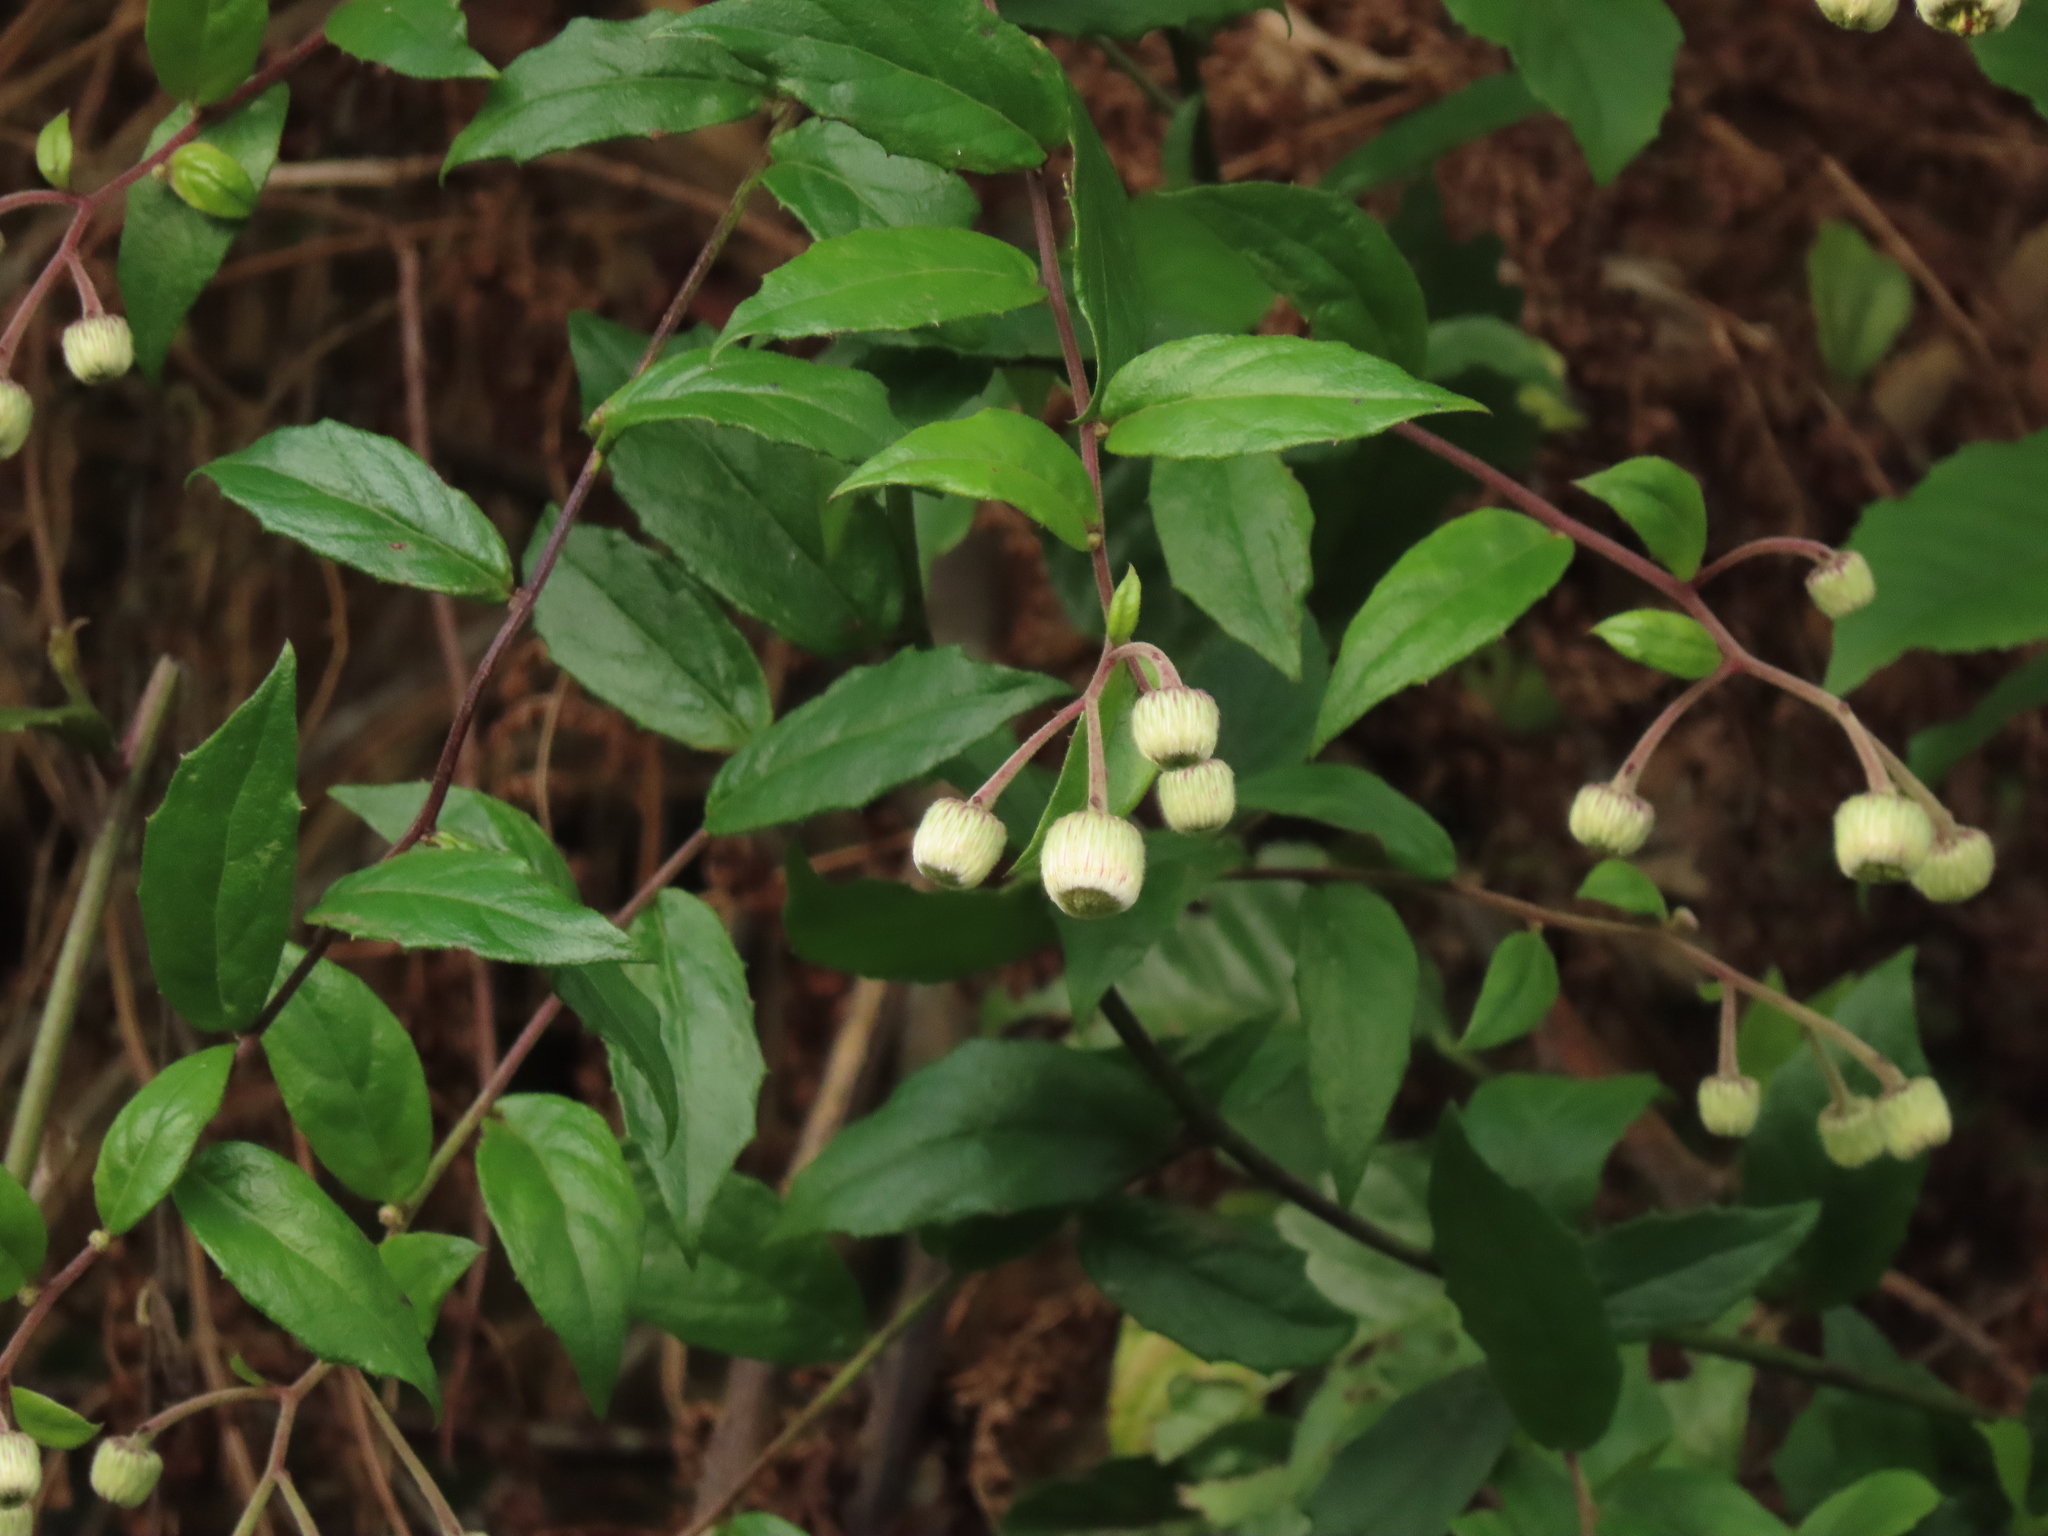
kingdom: Plantae
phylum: Tracheophyta
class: Magnoliopsida
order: Asterales
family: Asteraceae
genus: Blumea
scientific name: Blumea megacephala
